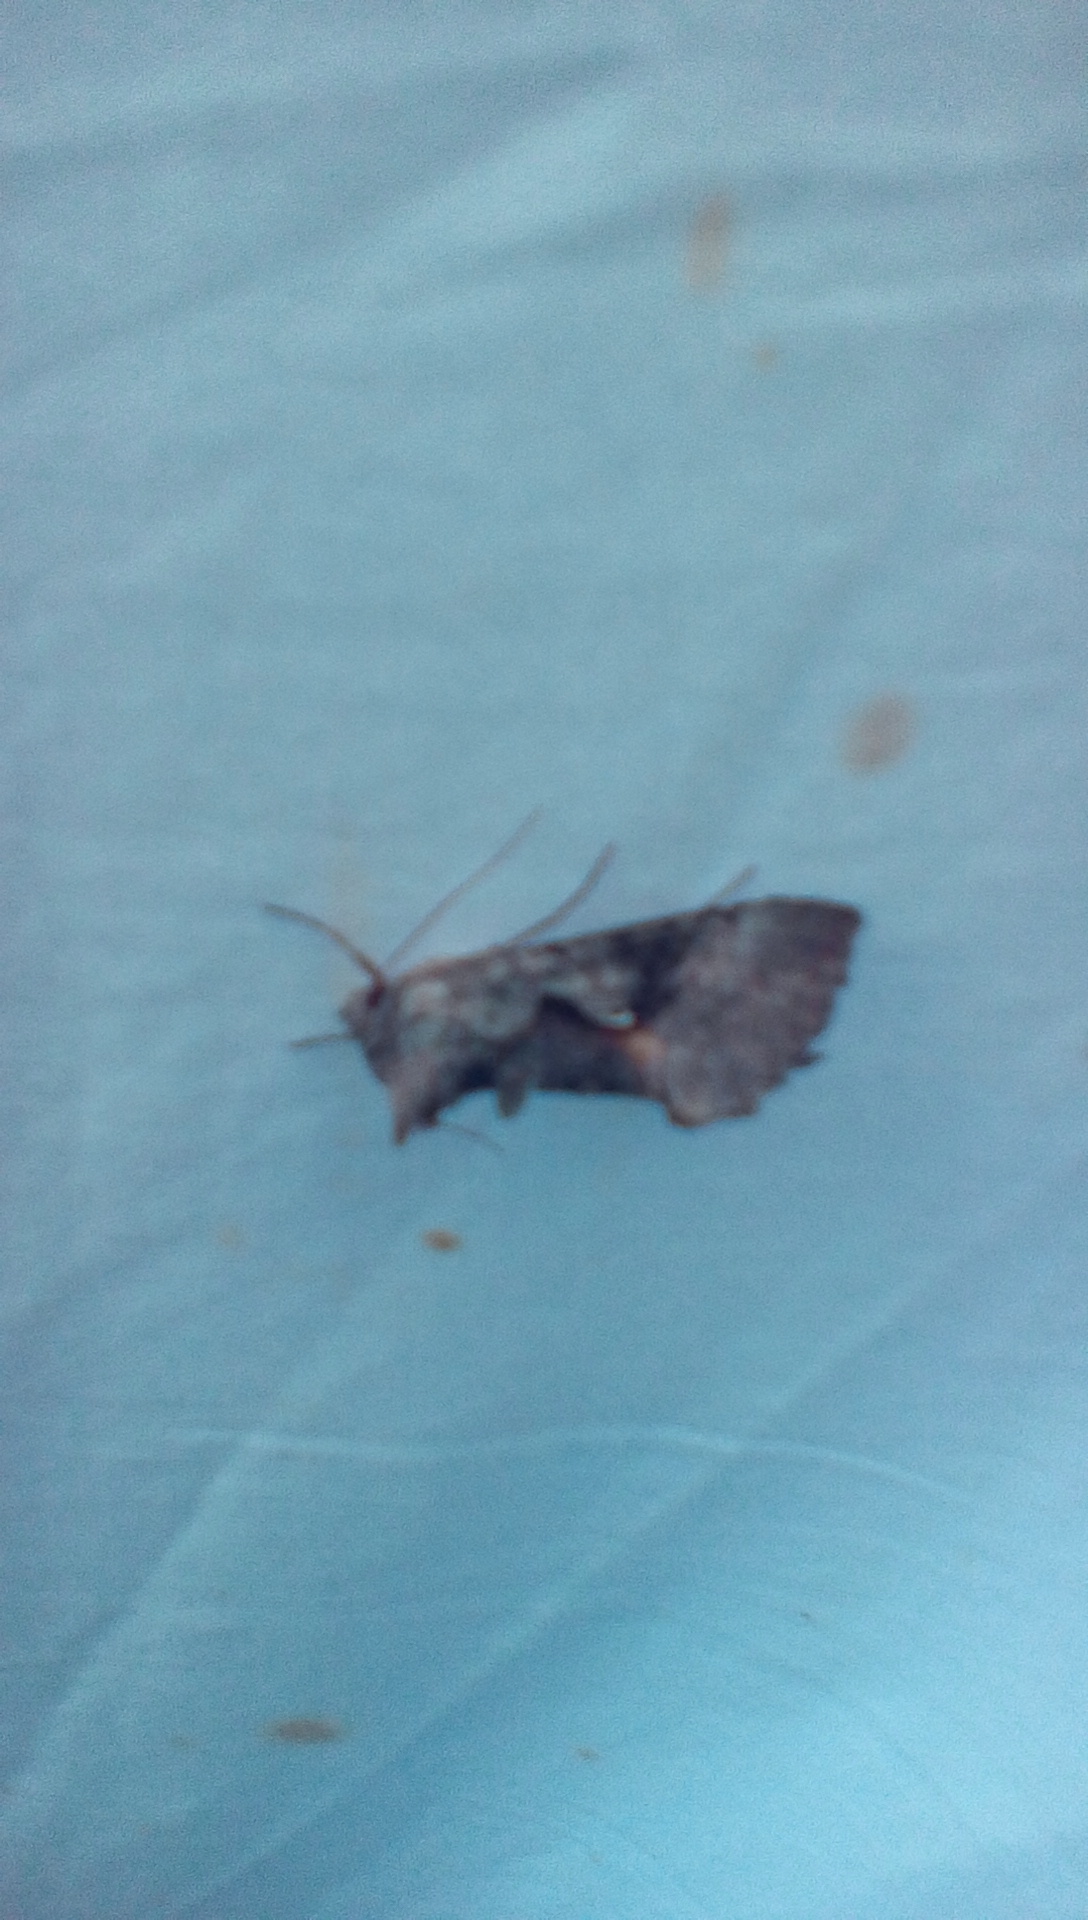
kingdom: Animalia
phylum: Arthropoda
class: Insecta
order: Lepidoptera
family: Noctuidae
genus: Syngrapha
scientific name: Syngrapha epigaea
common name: Epigaea looper moth
